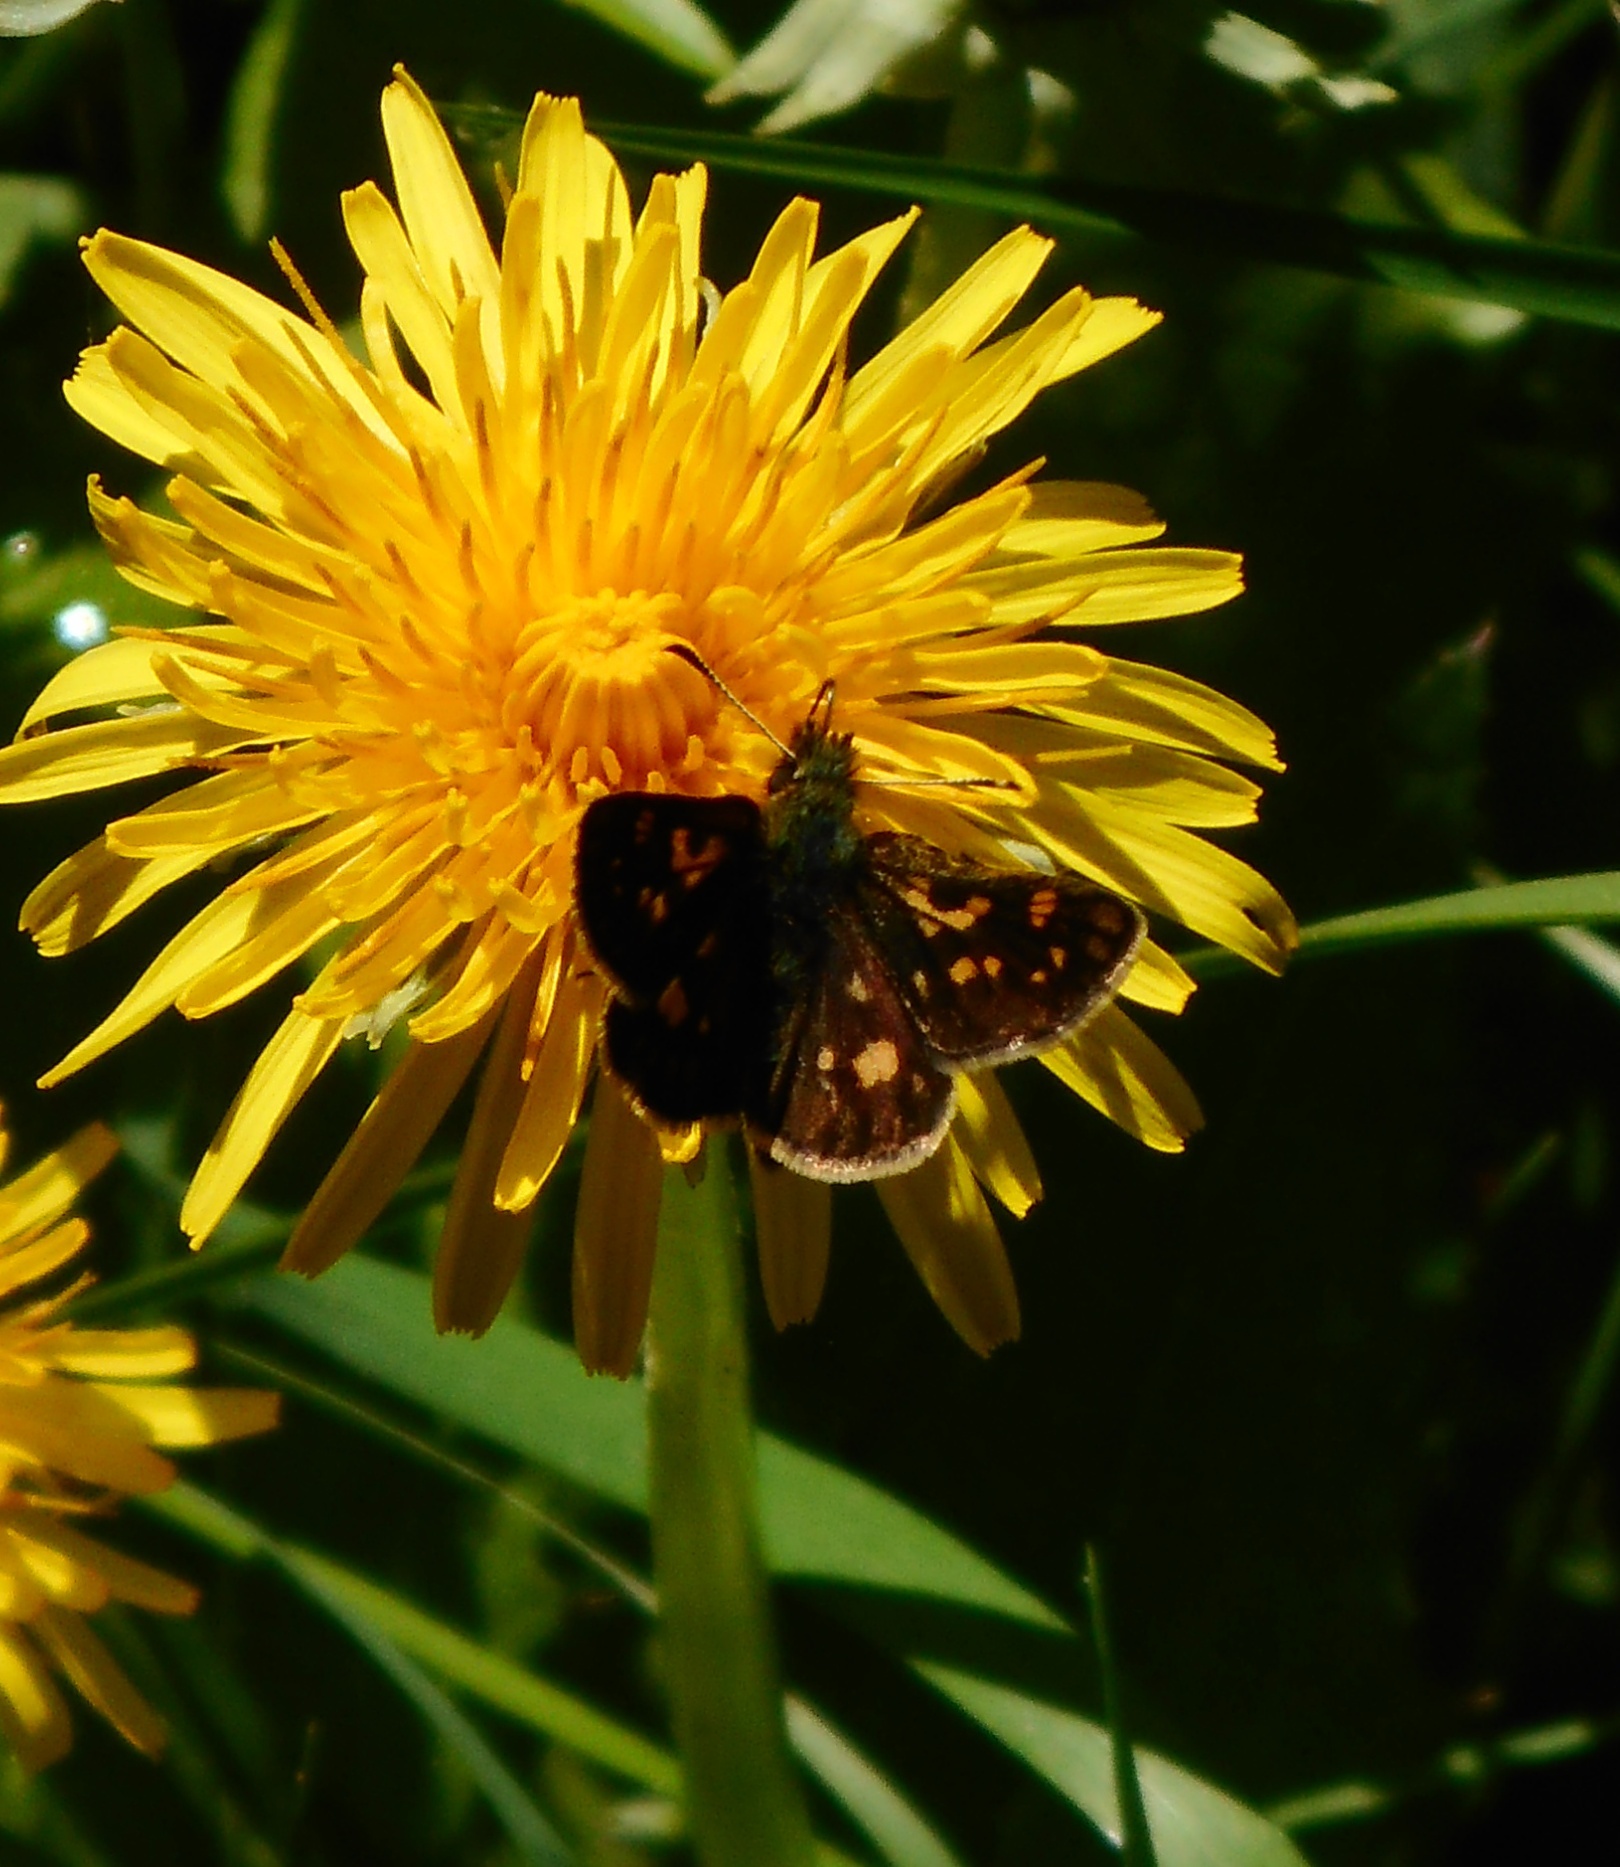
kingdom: Animalia
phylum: Arthropoda
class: Insecta
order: Lepidoptera
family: Hesperiidae
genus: Carterocephalus
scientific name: Carterocephalus palaemon
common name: Chequered skipper
